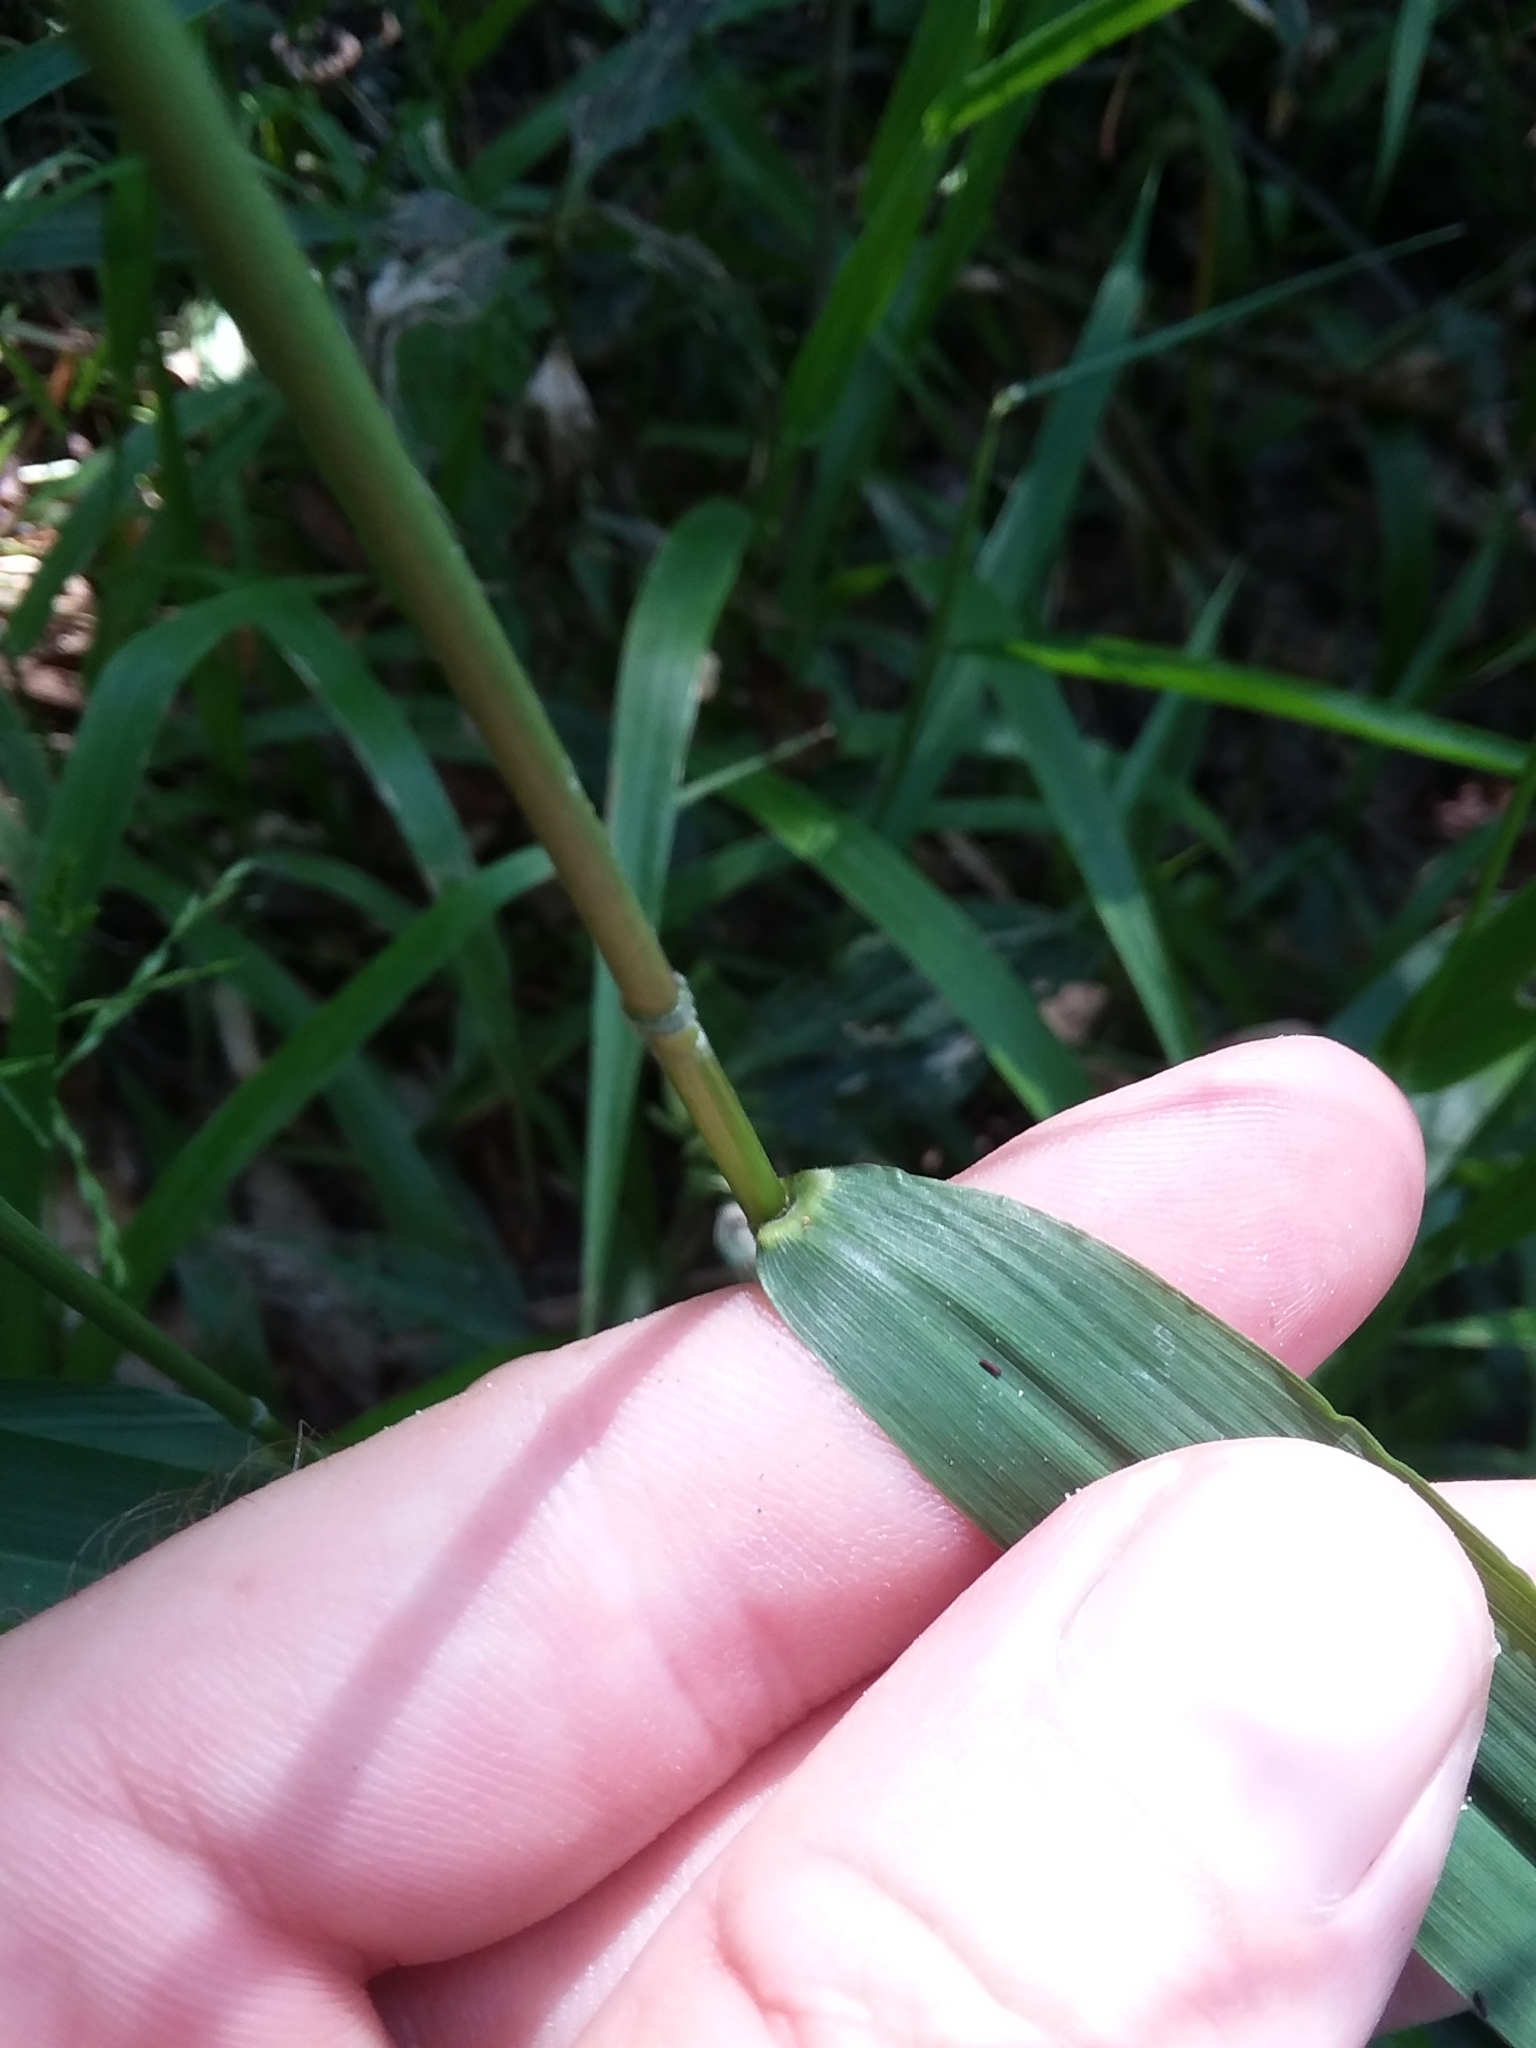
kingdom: Plantae
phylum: Tracheophyta
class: Liliopsida
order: Poales
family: Poaceae
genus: Leersia
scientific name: Leersia lenticularis
